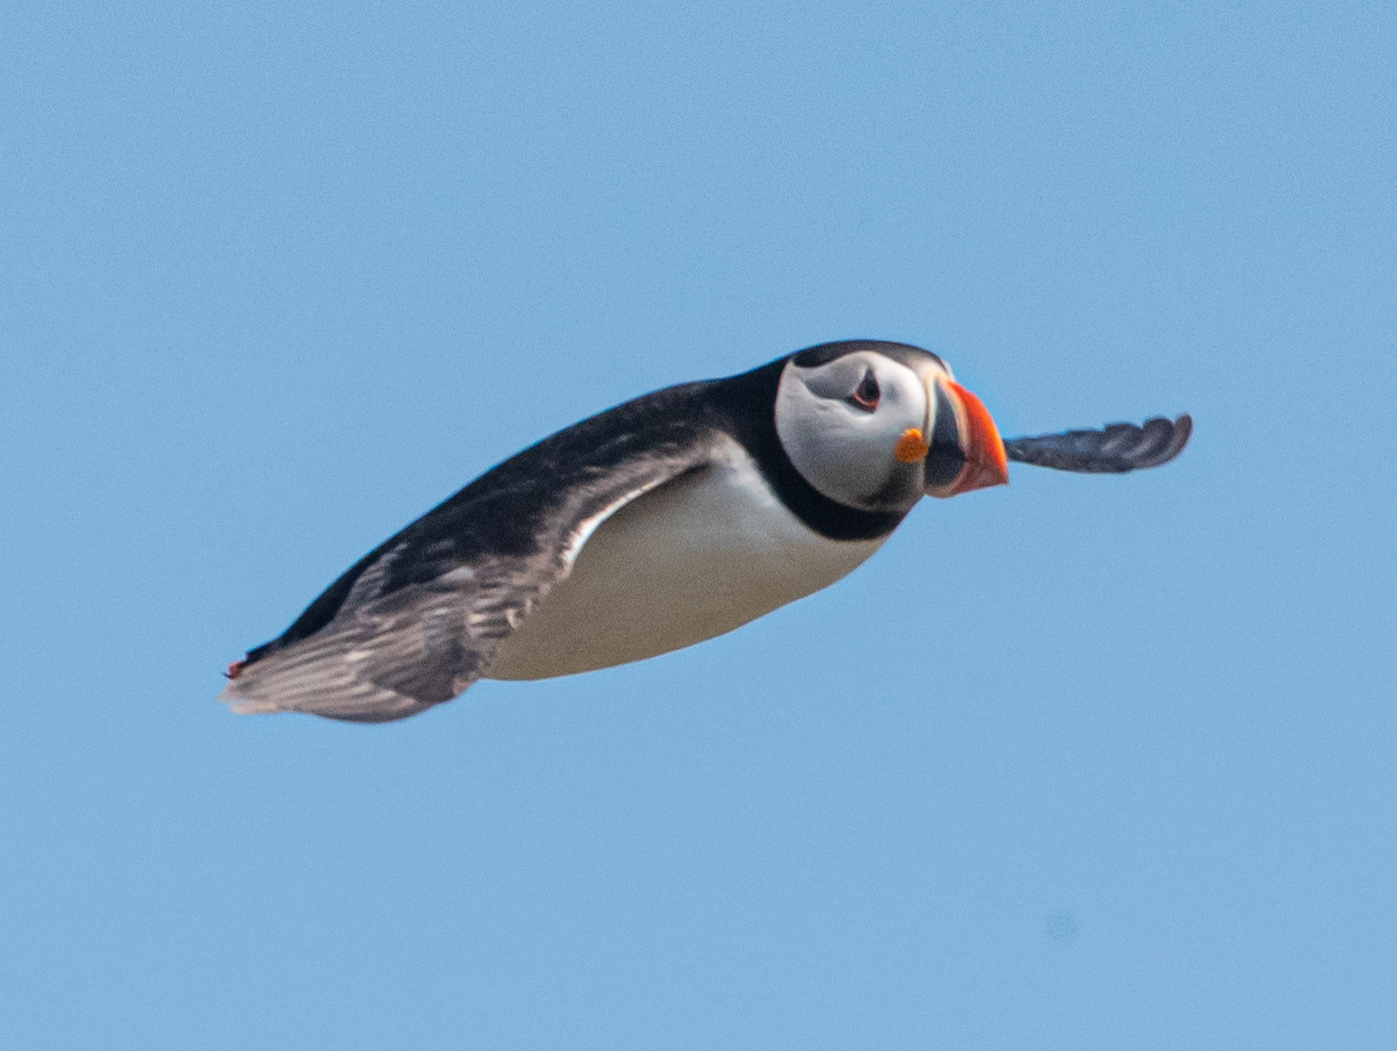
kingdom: Animalia
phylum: Chordata
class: Aves
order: Charadriiformes
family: Alcidae
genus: Fratercula
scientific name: Fratercula arctica
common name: Atlantic puffin
